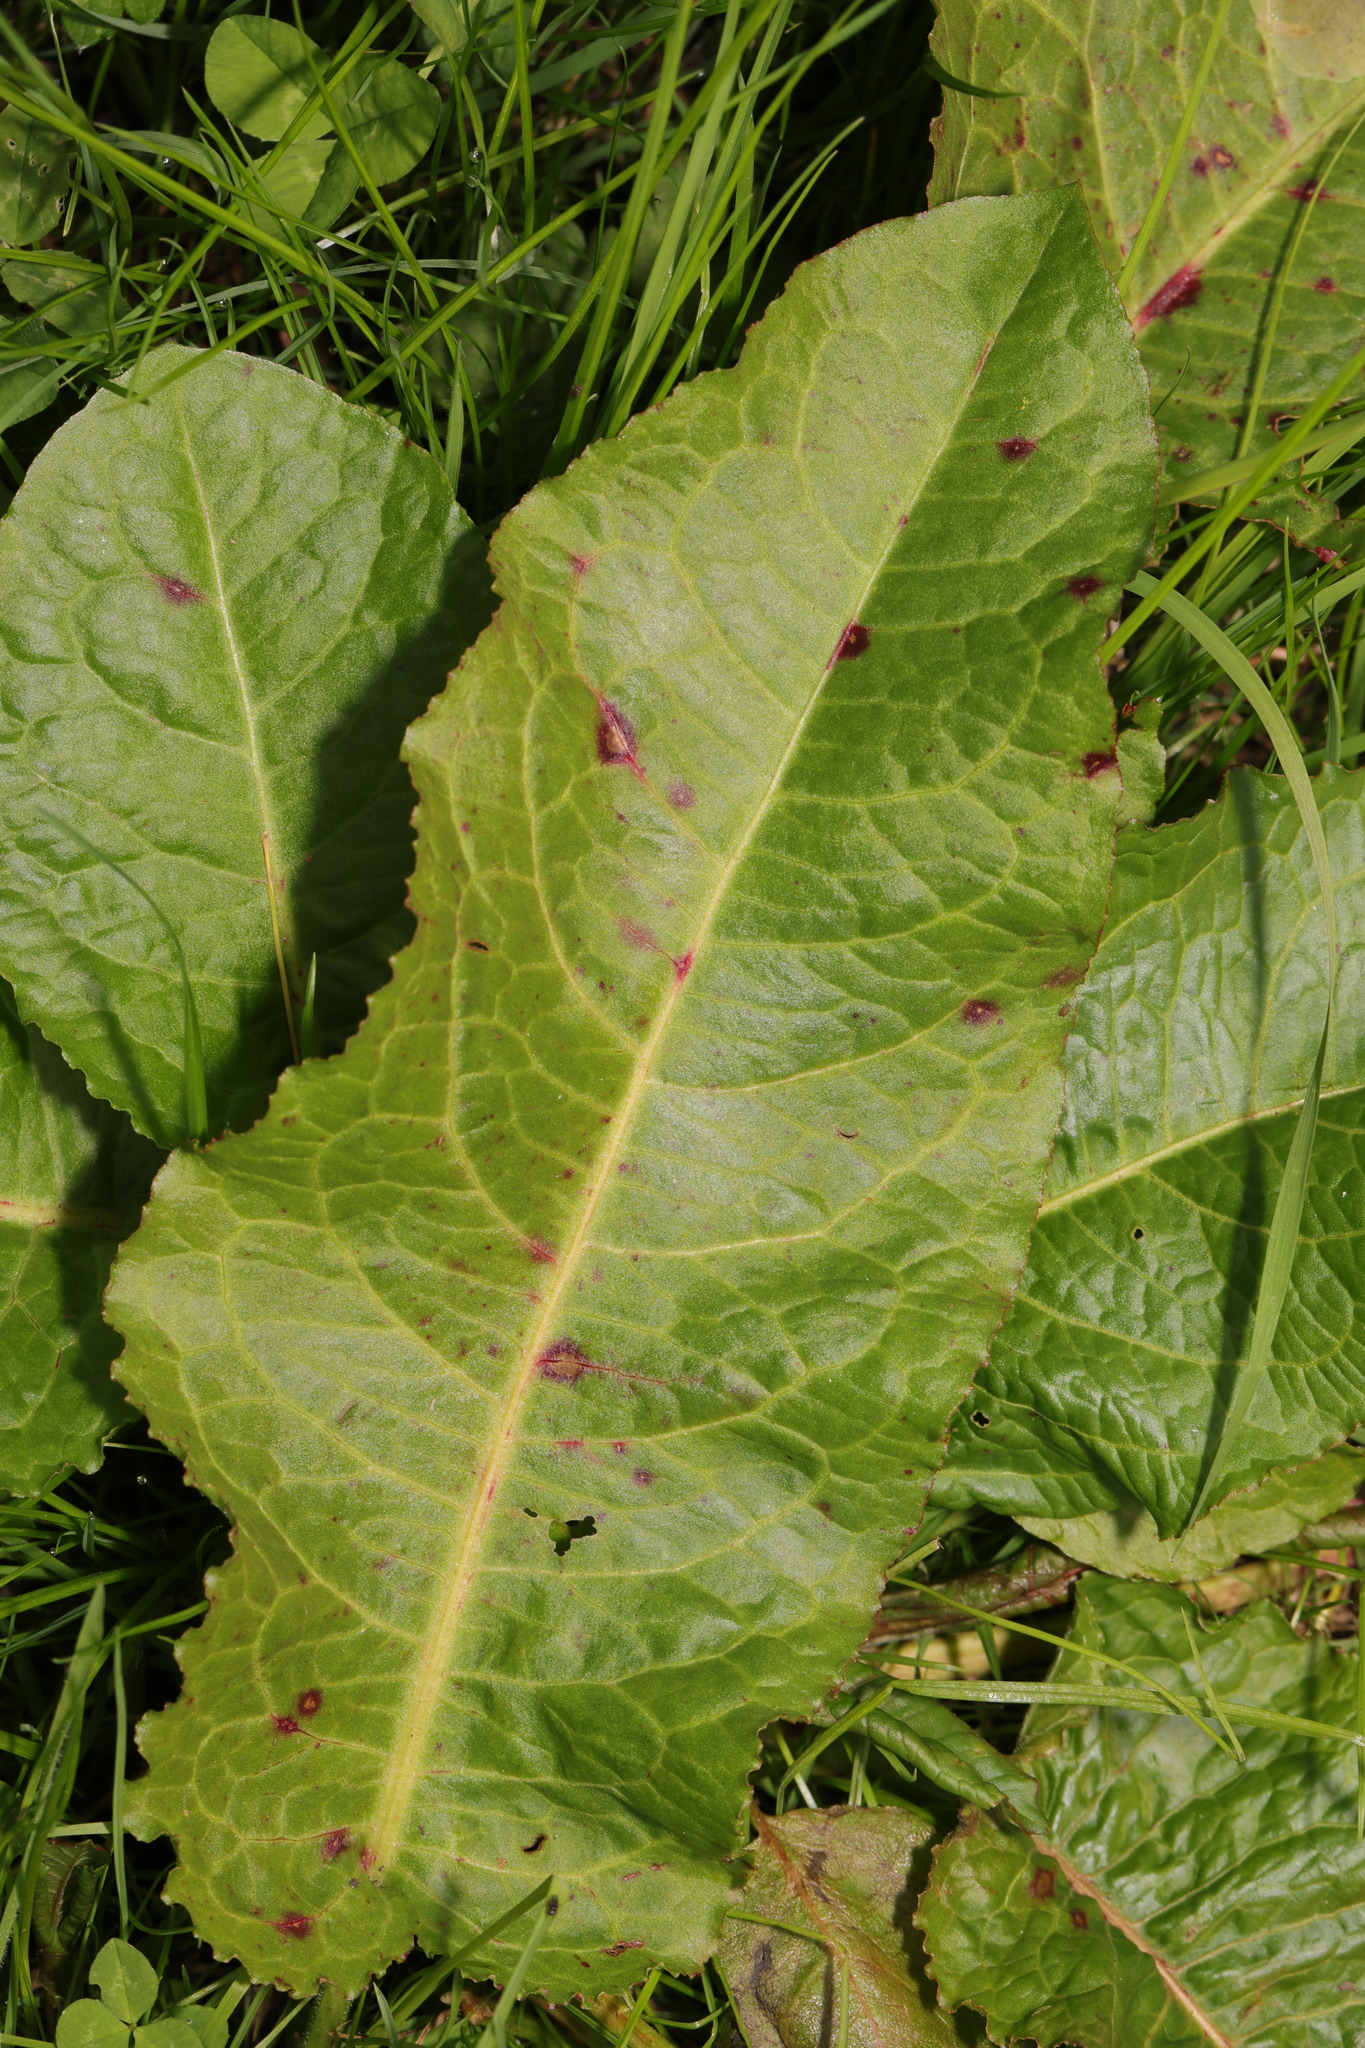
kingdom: Plantae
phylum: Tracheophyta
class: Magnoliopsida
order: Caryophyllales
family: Polygonaceae
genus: Rumex
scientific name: Rumex obtusifolius
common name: Bitter dock
